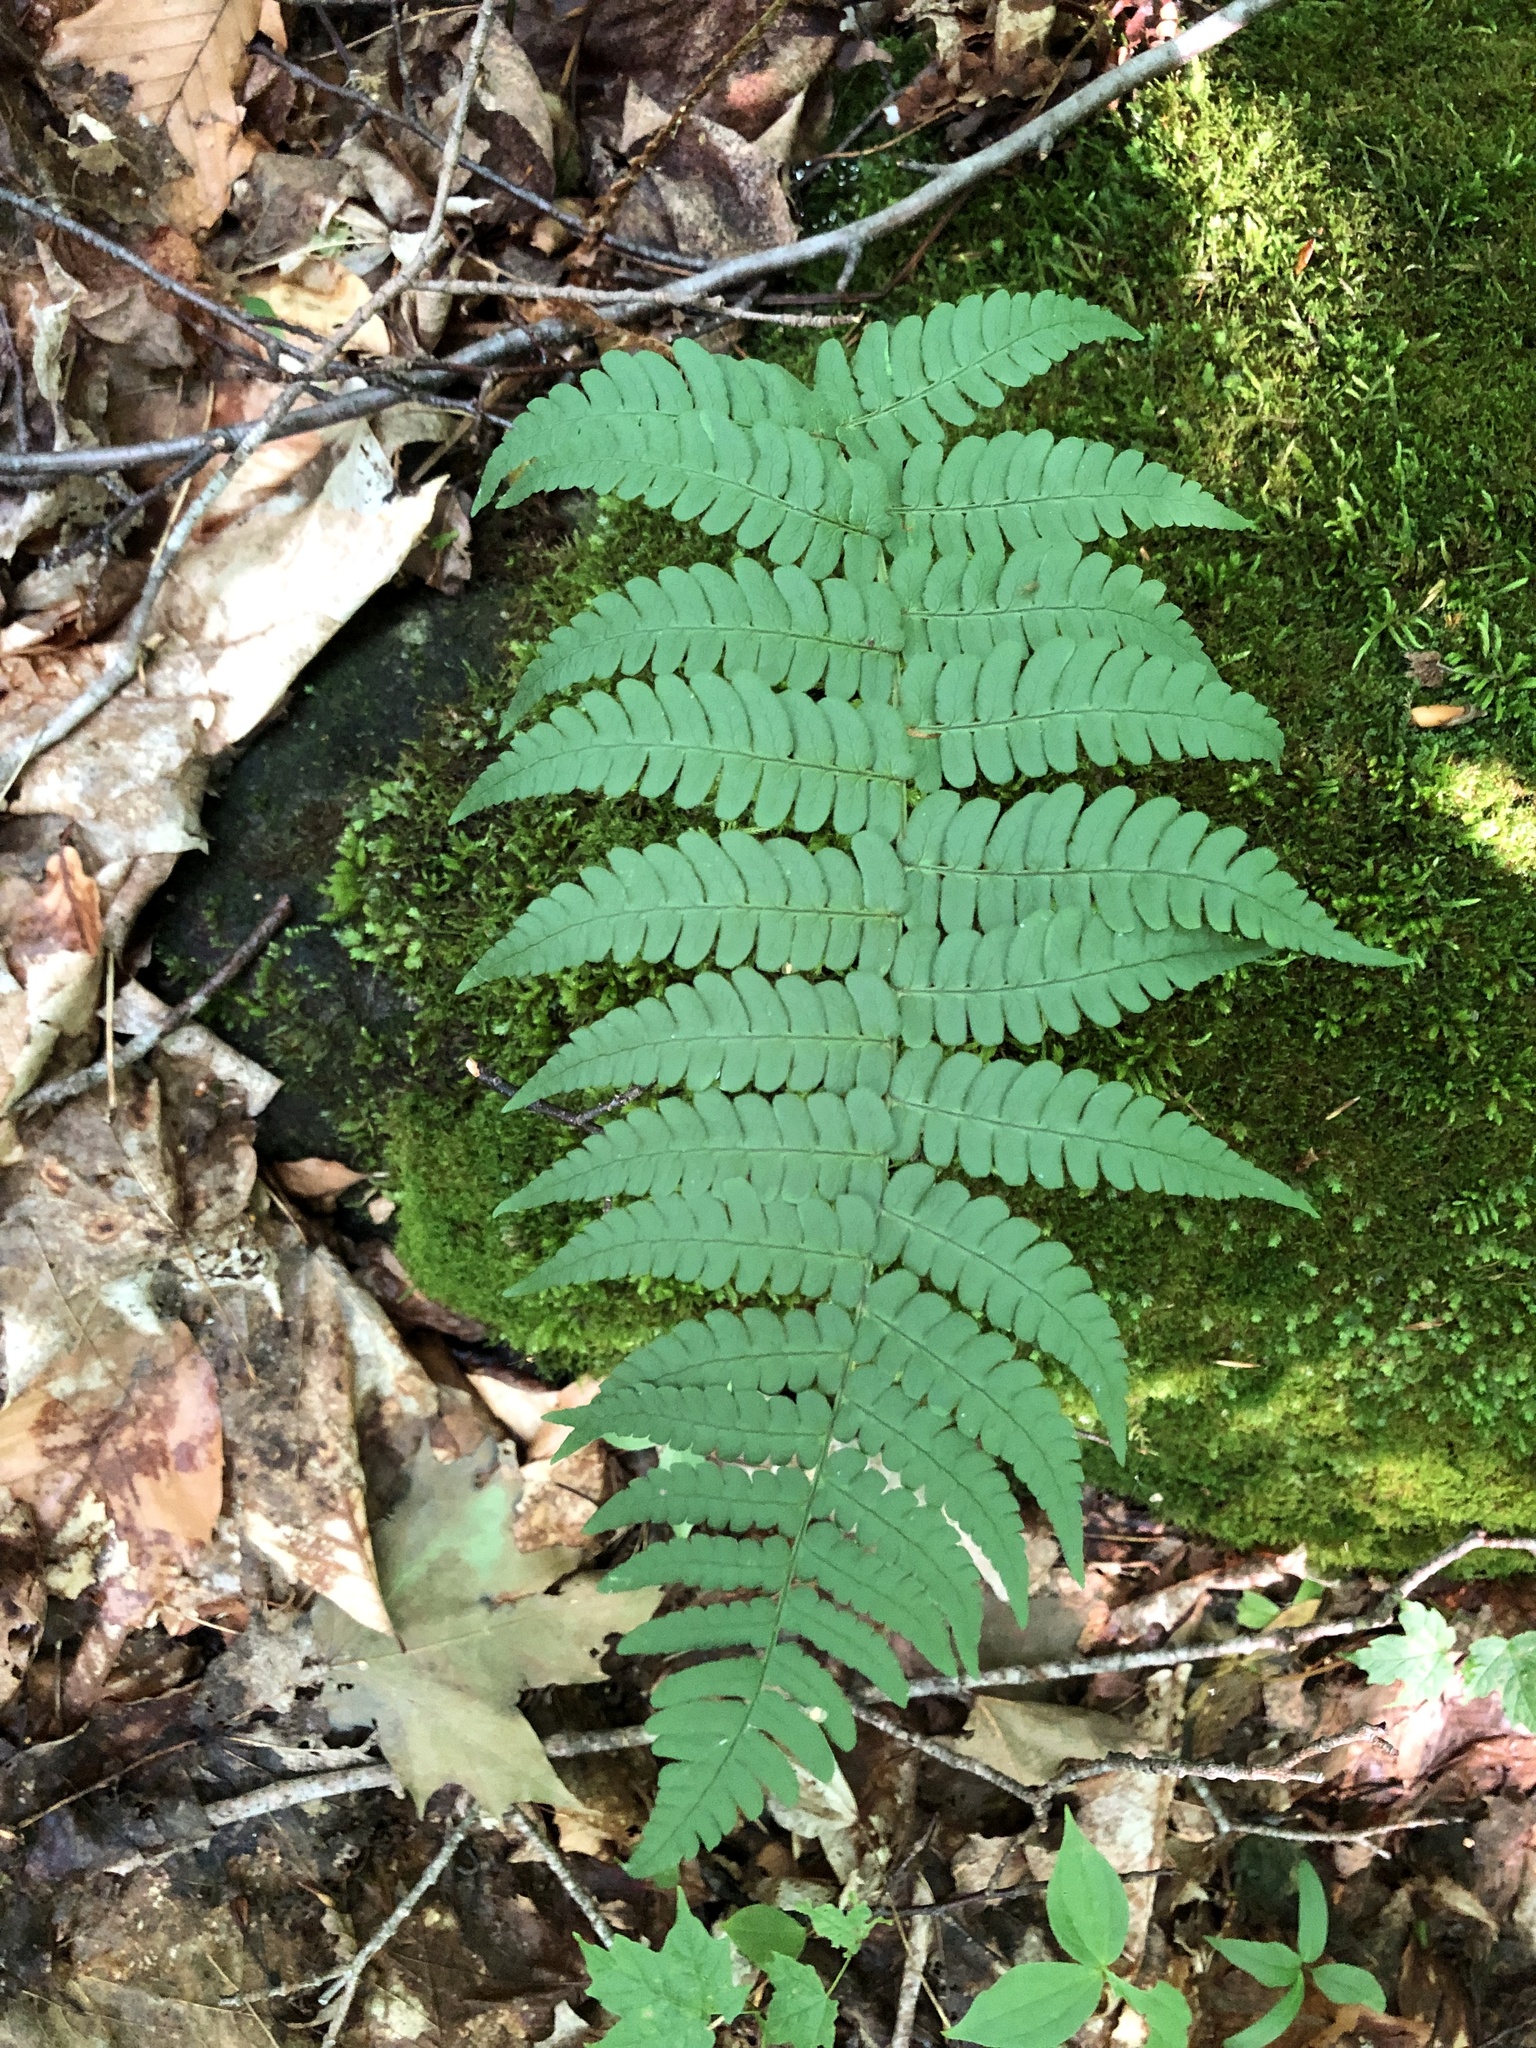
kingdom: Plantae
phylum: Tracheophyta
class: Polypodiopsida
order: Polypodiales
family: Dryopteridaceae
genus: Dryopteris
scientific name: Dryopteris marginalis
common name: Marginal wood fern
